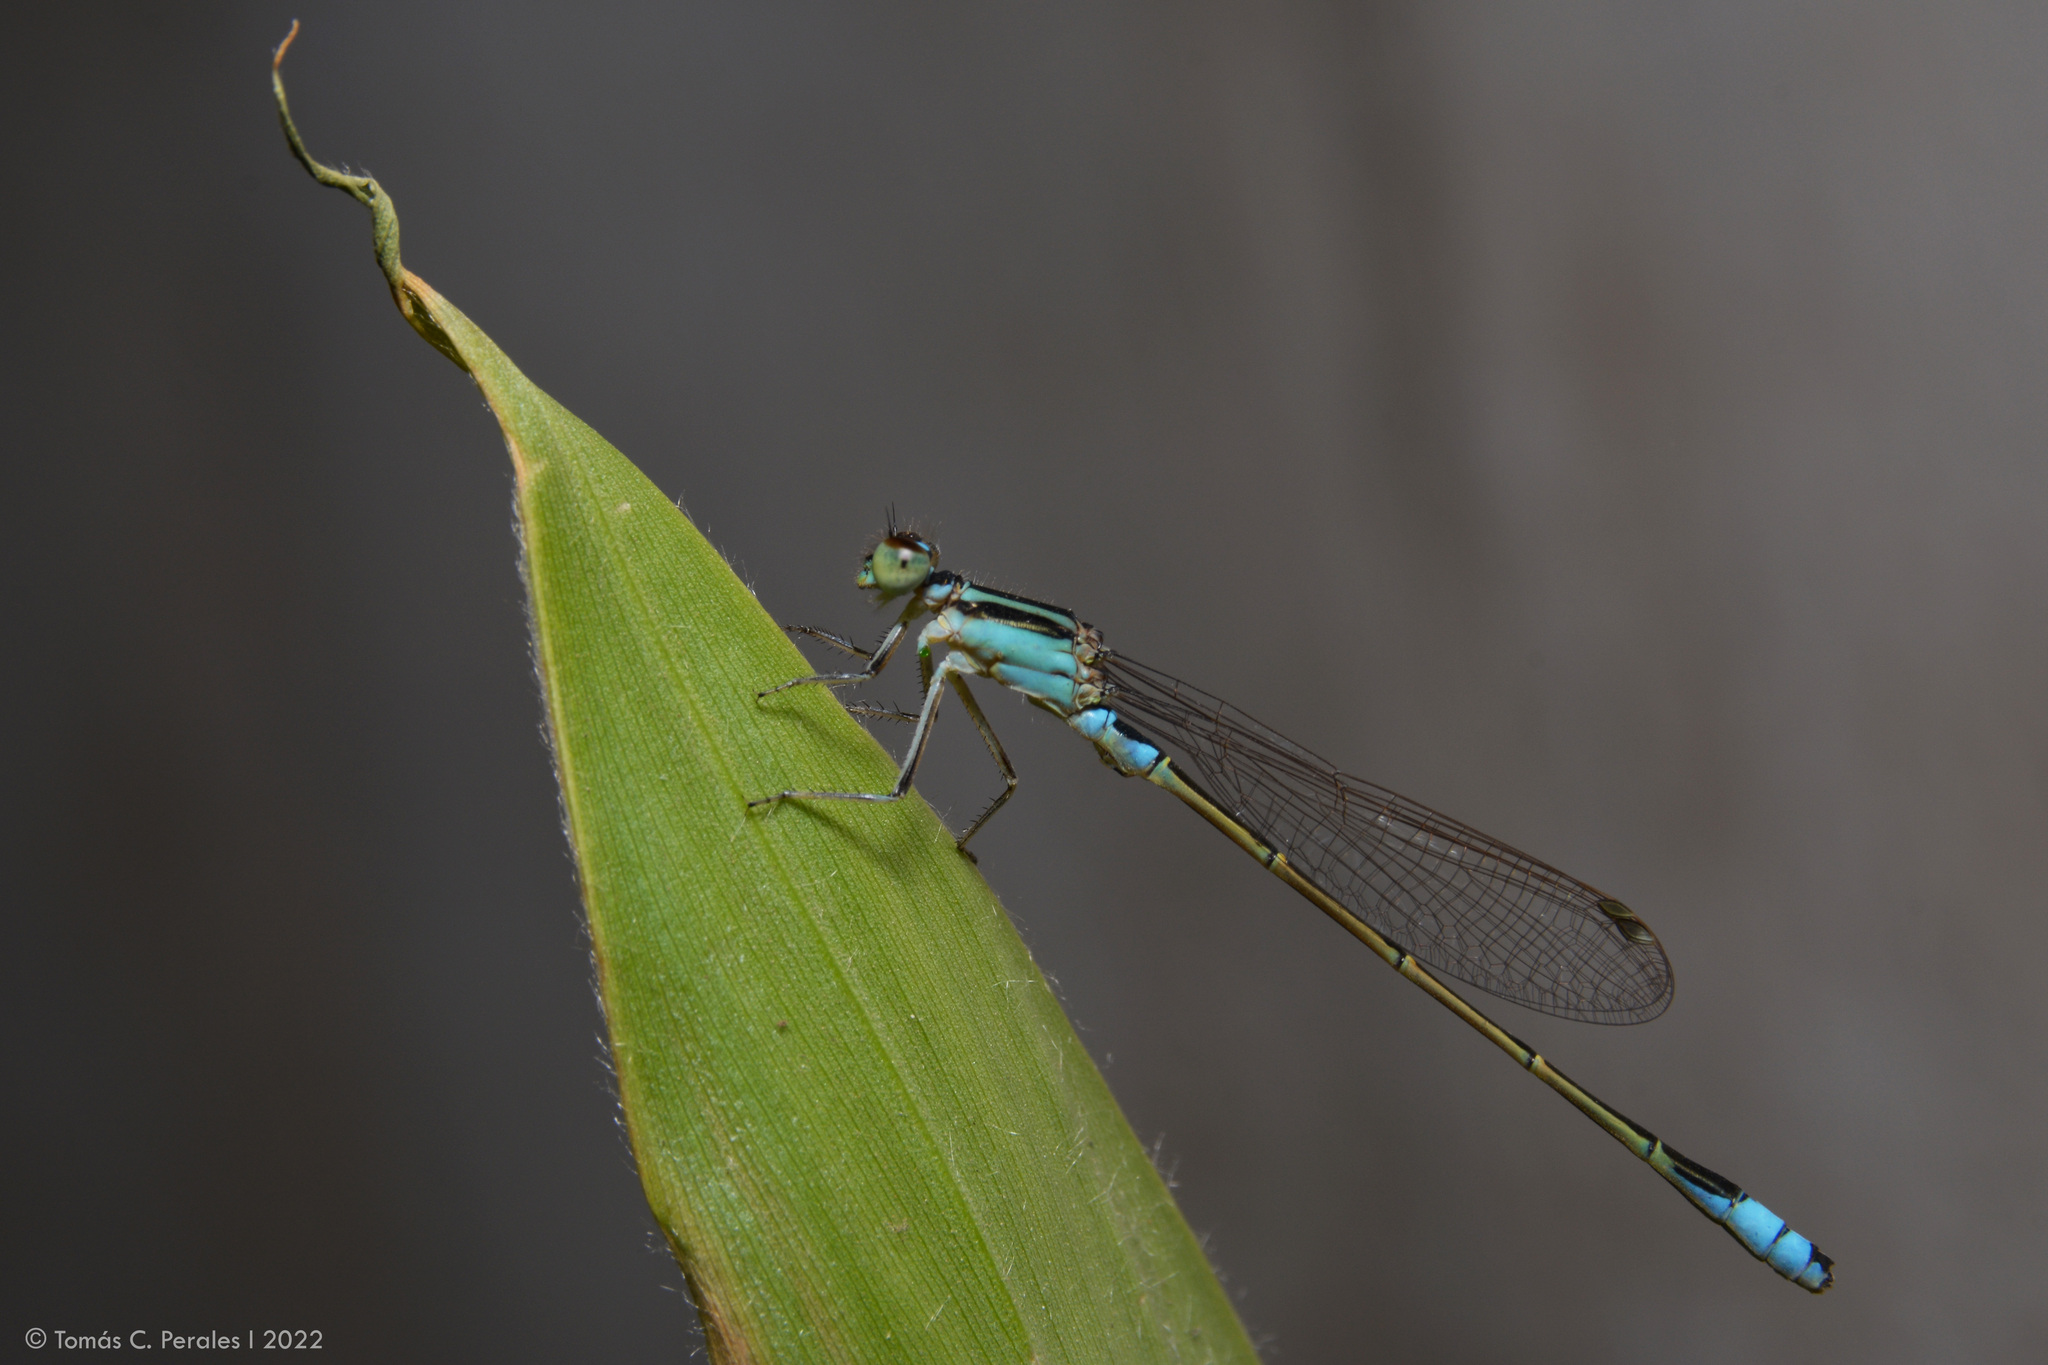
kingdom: Animalia
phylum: Arthropoda
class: Insecta
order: Odonata
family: Coenagrionidae
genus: Ischnura
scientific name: Ischnura fluviatilis
